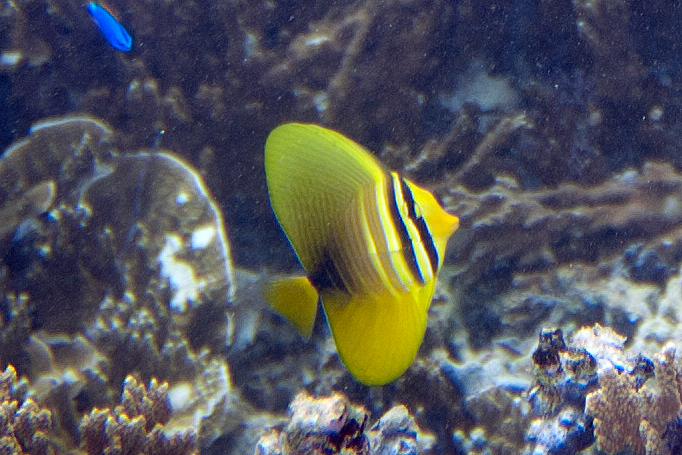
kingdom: Animalia
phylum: Chordata
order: Perciformes
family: Acanthuridae
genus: Zebrasoma
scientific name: Zebrasoma veliferum
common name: Sailfin surgeonfish
